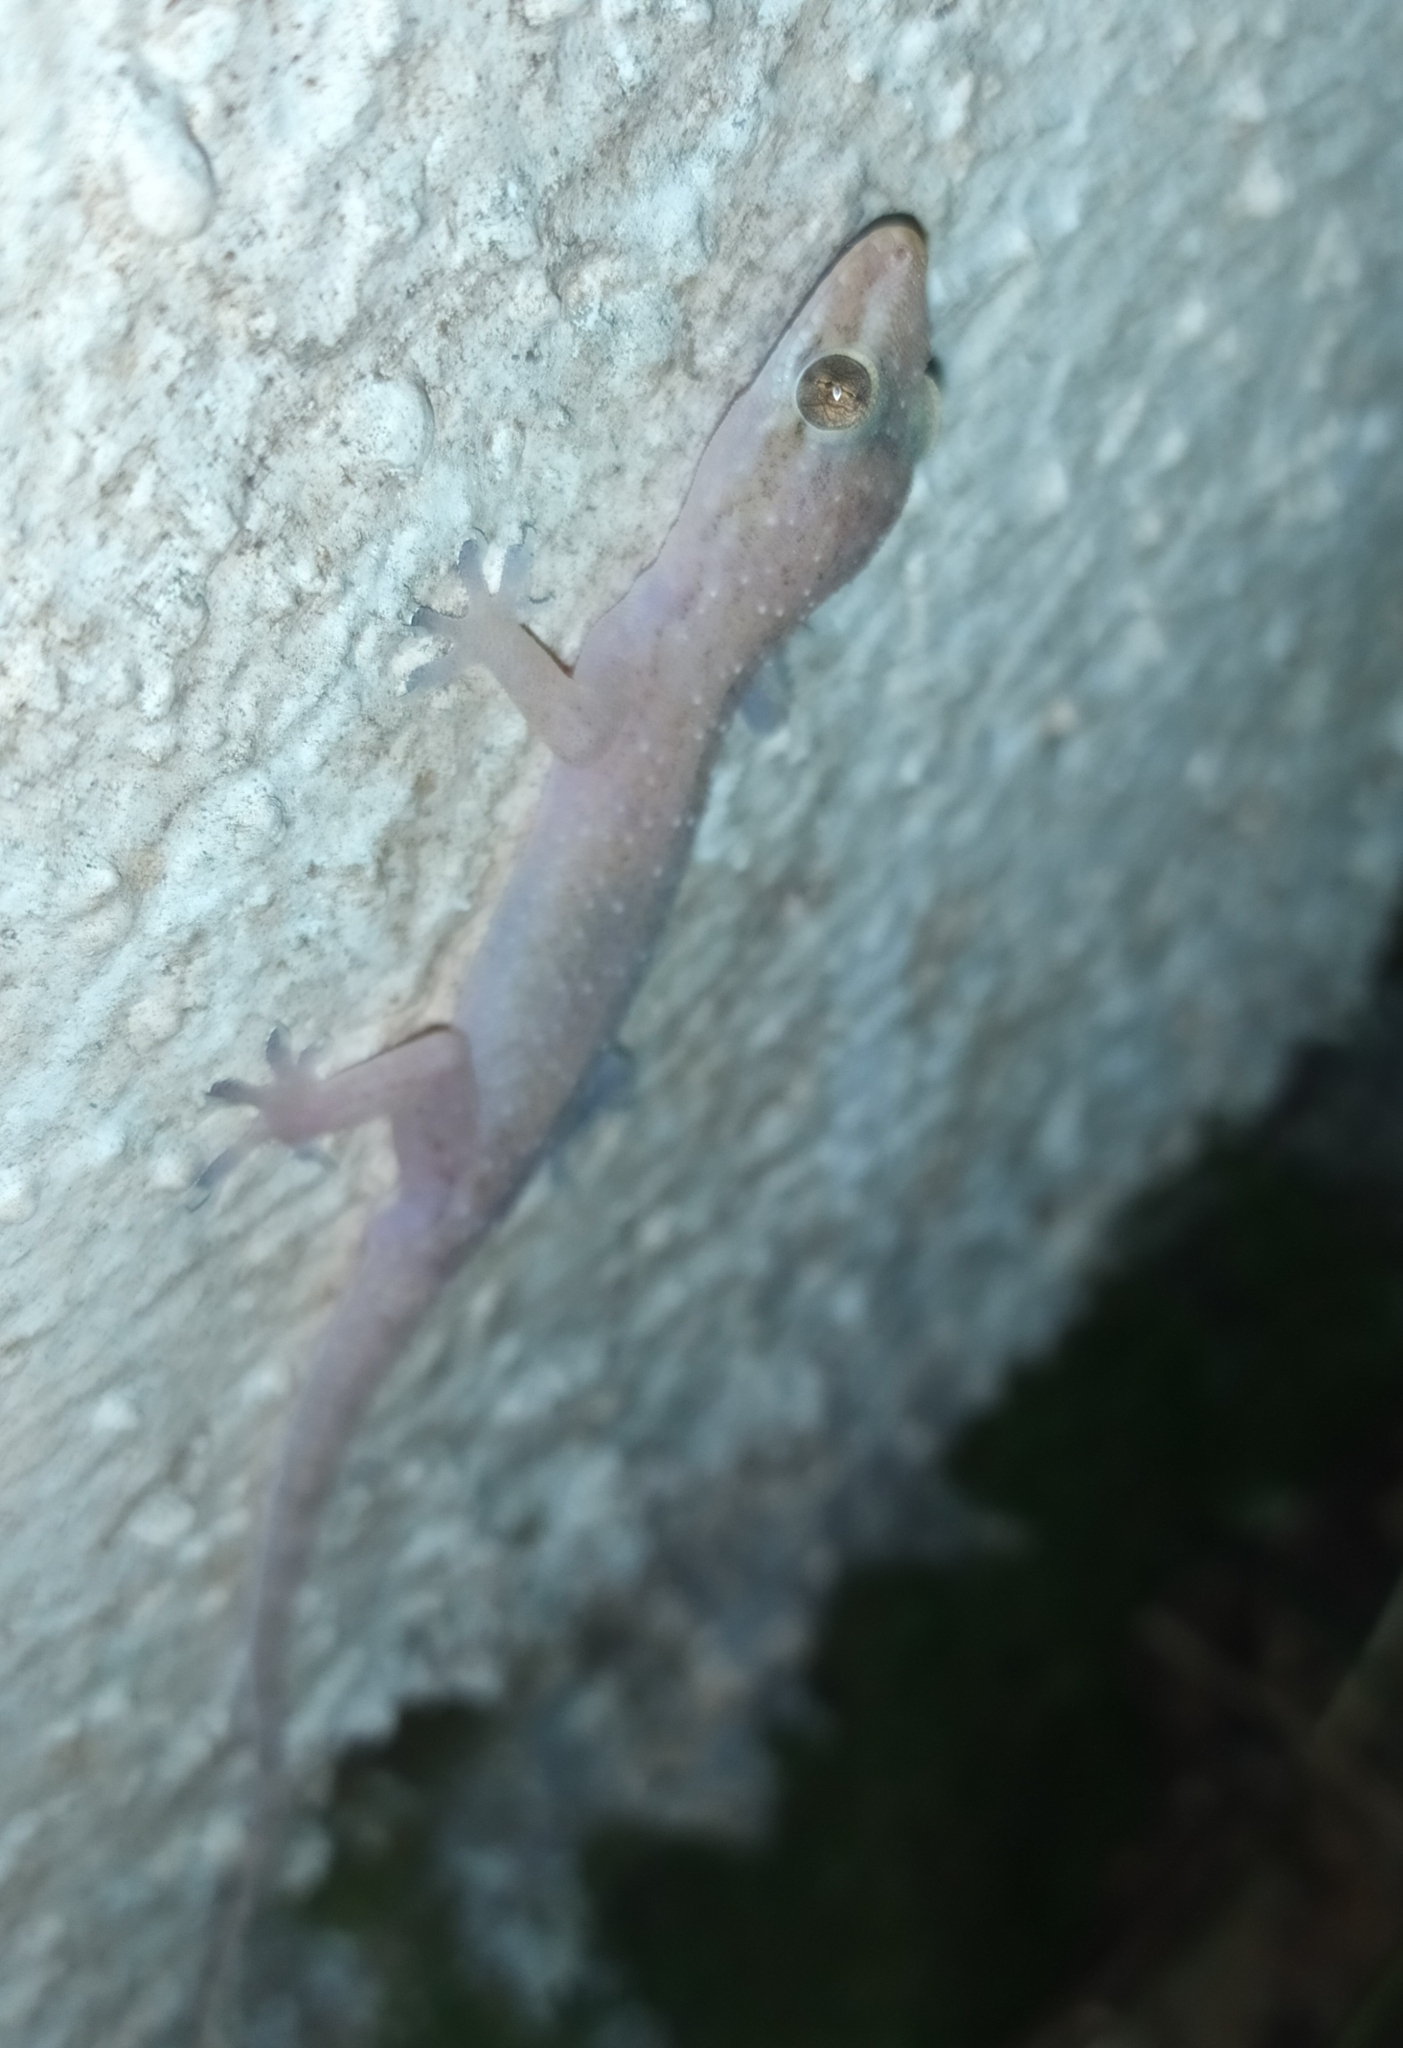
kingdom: Animalia
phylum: Chordata
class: Squamata
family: Gekkonidae
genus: Hemidactylus
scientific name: Hemidactylus frenatus
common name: Common house gecko
